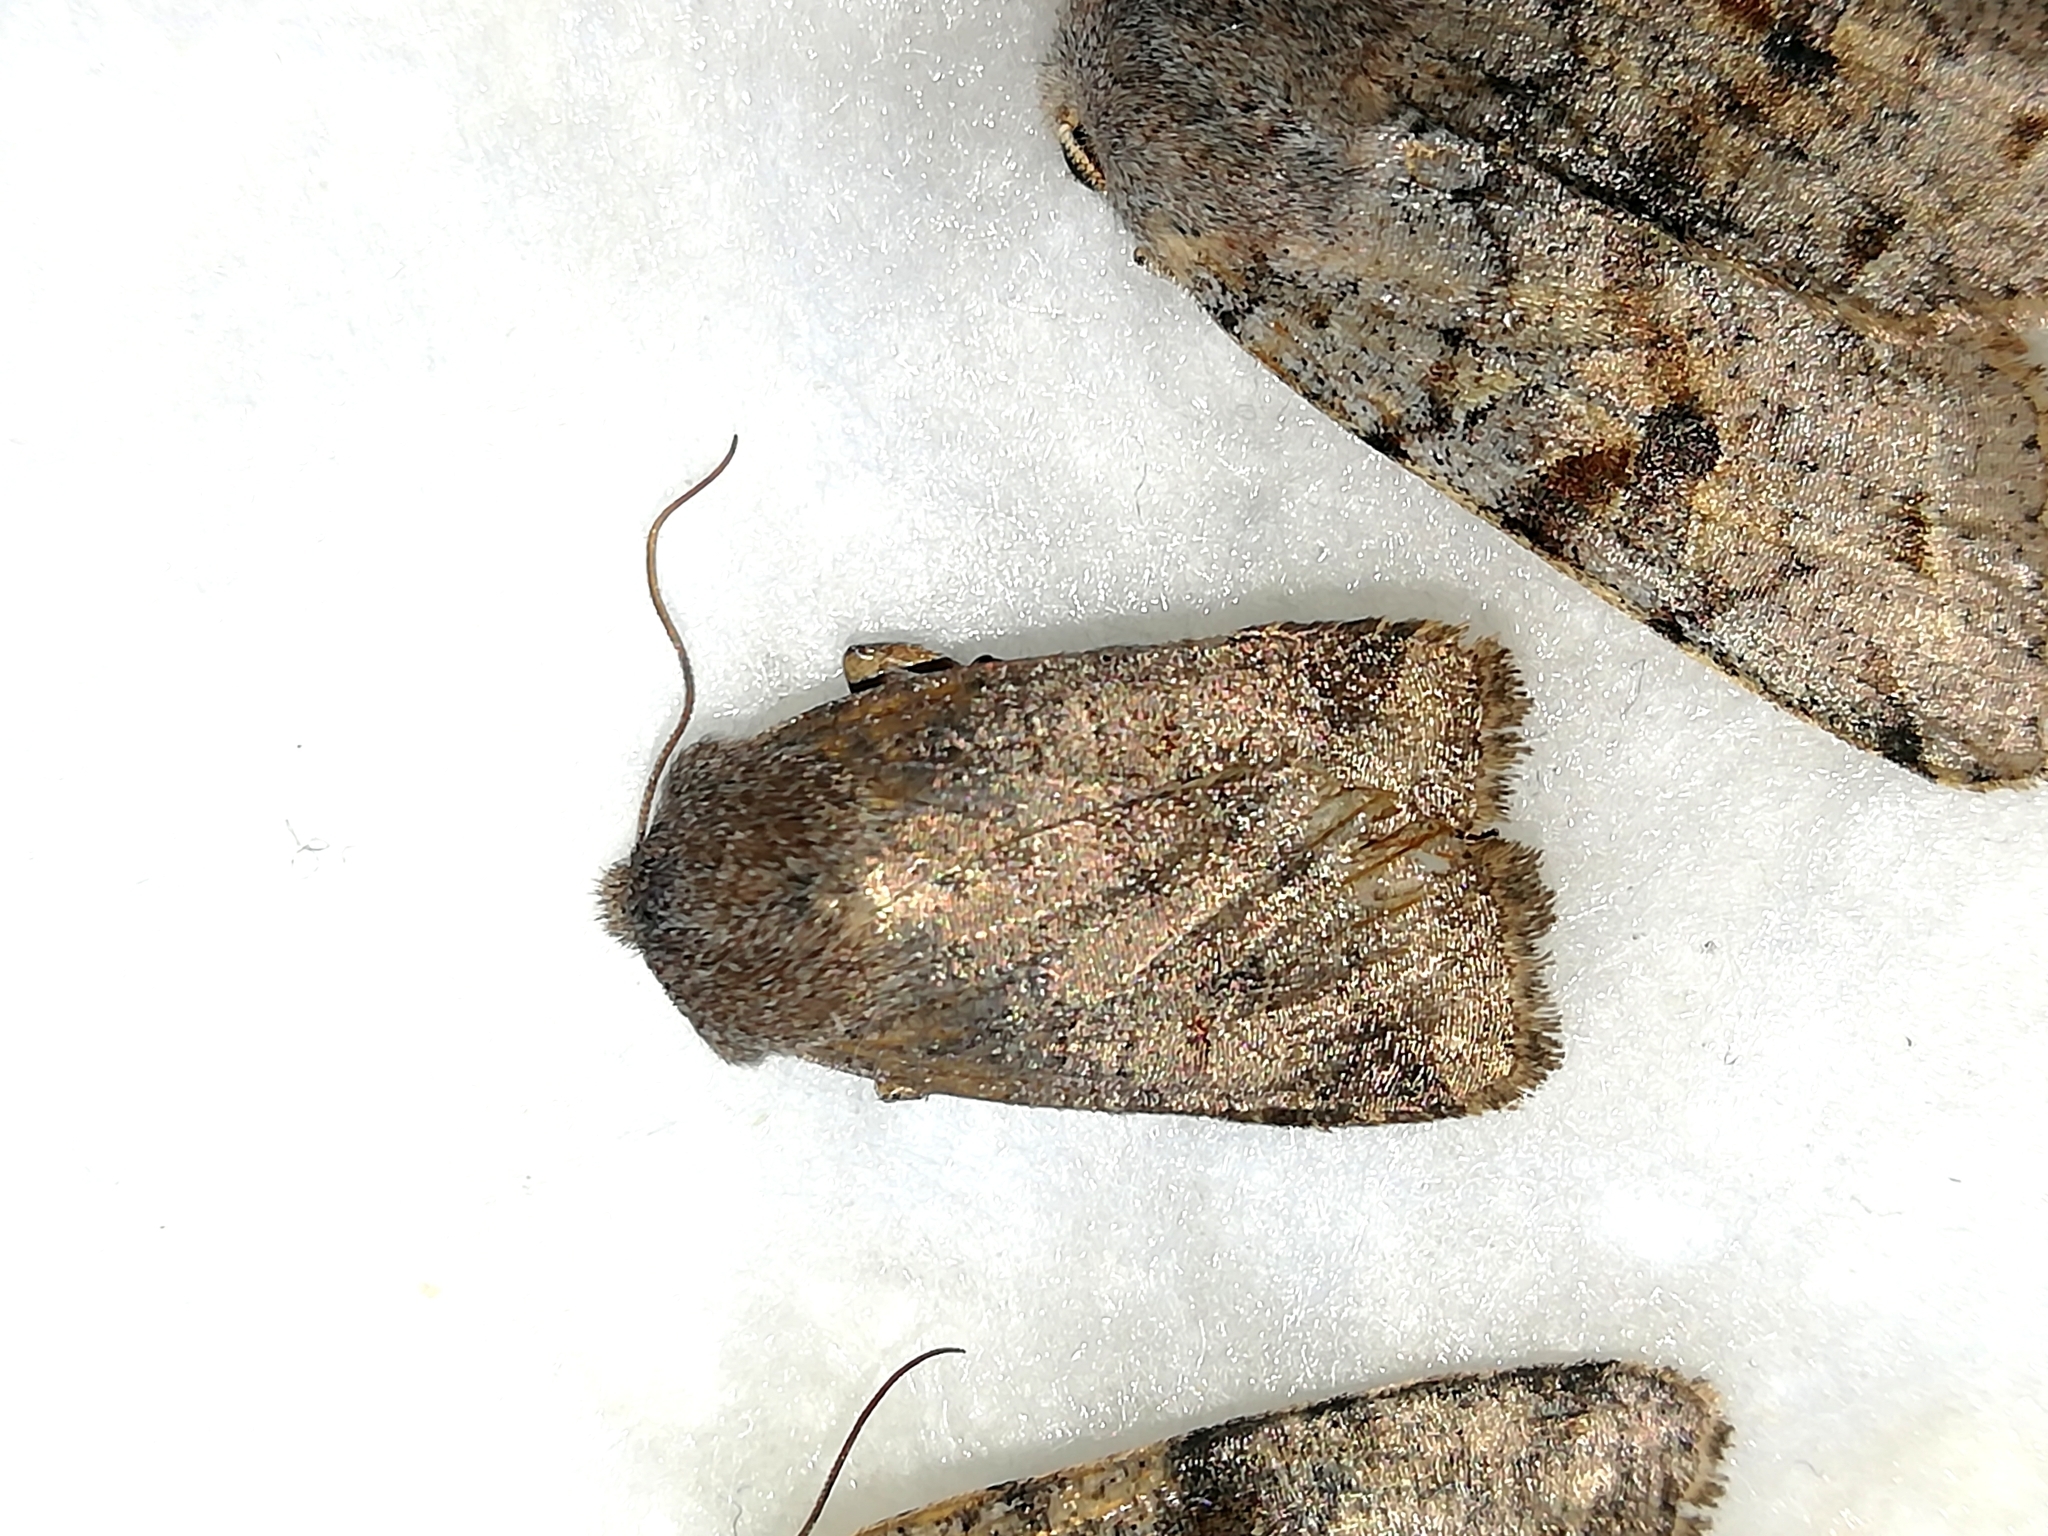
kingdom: Animalia
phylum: Arthropoda
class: Insecta
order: Lepidoptera
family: Noctuidae
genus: Conistra
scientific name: Conistra vaccinii
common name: Chestnut
